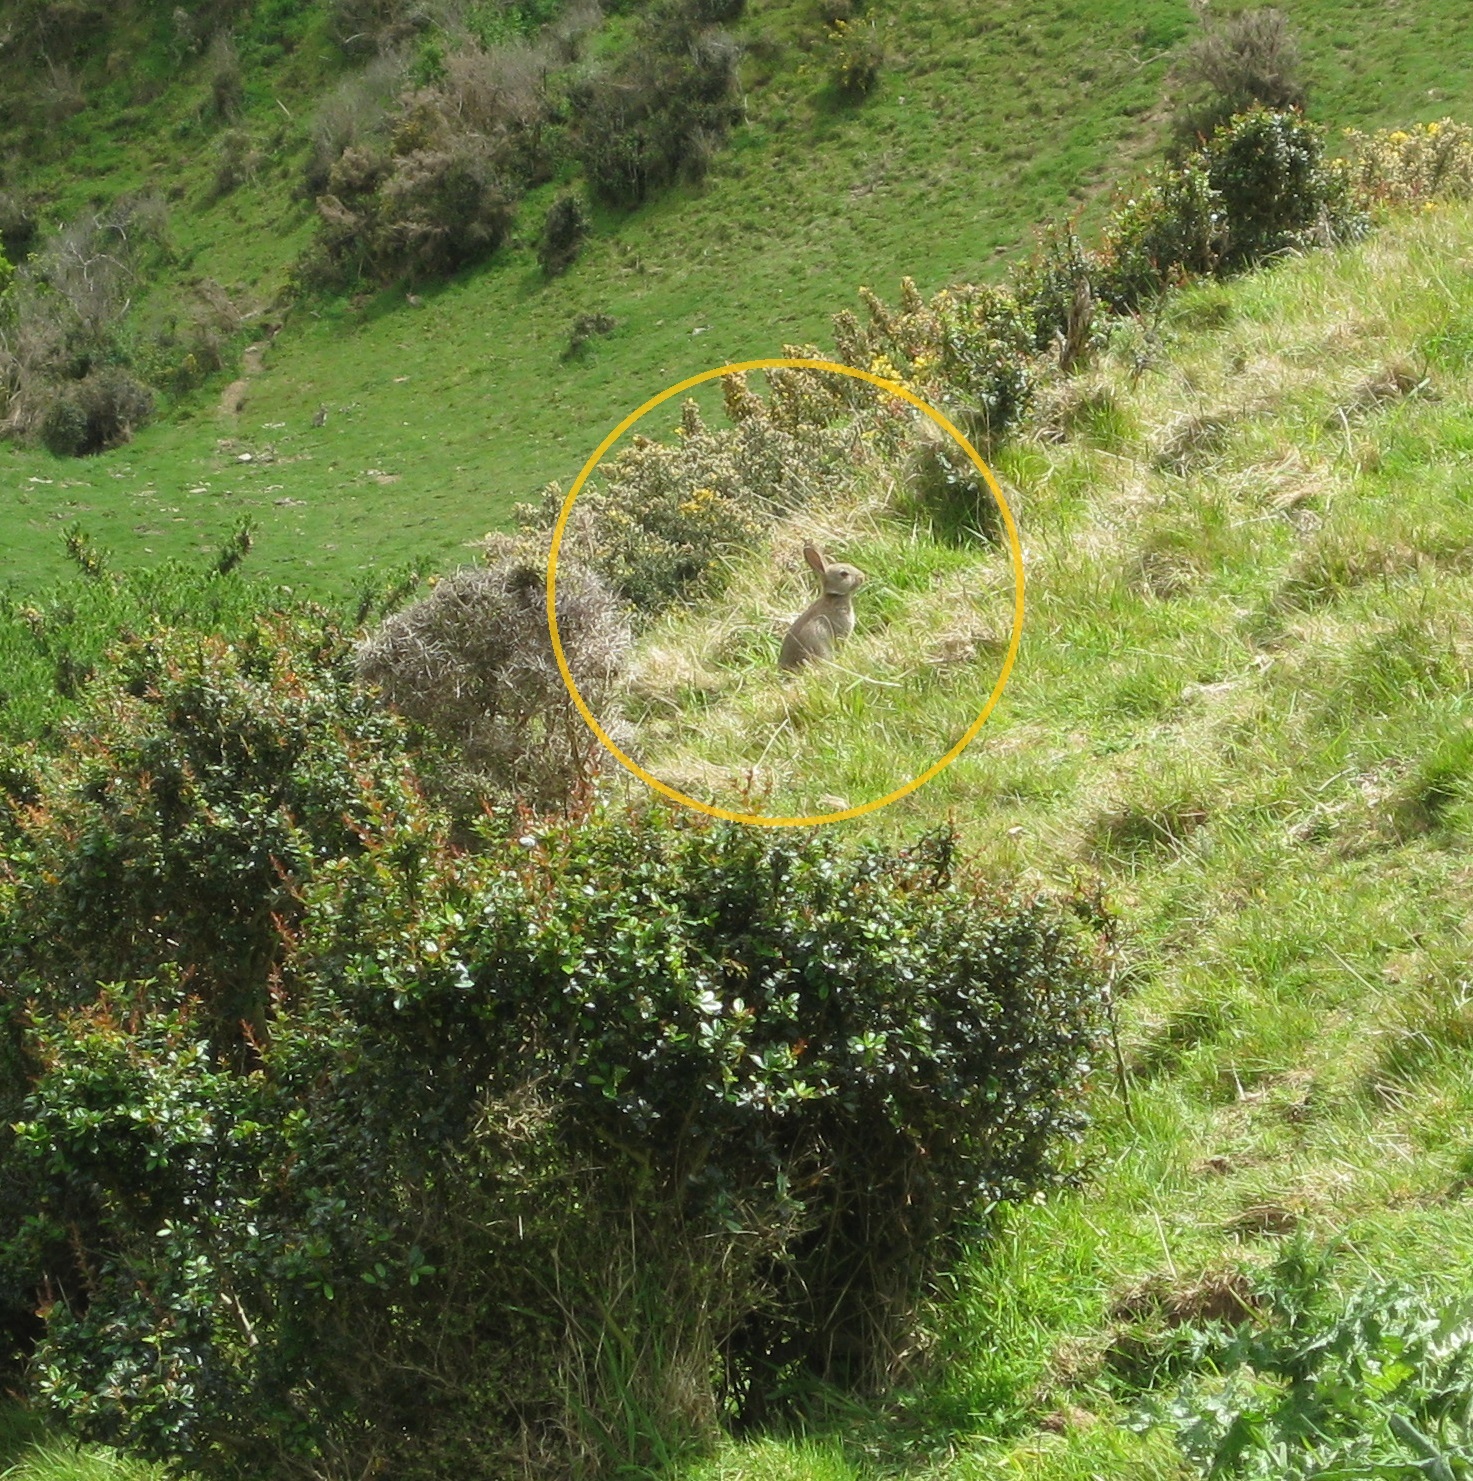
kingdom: Animalia
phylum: Chordata
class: Mammalia
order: Lagomorpha
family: Leporidae
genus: Oryctolagus
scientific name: Oryctolagus cuniculus
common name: European rabbit
